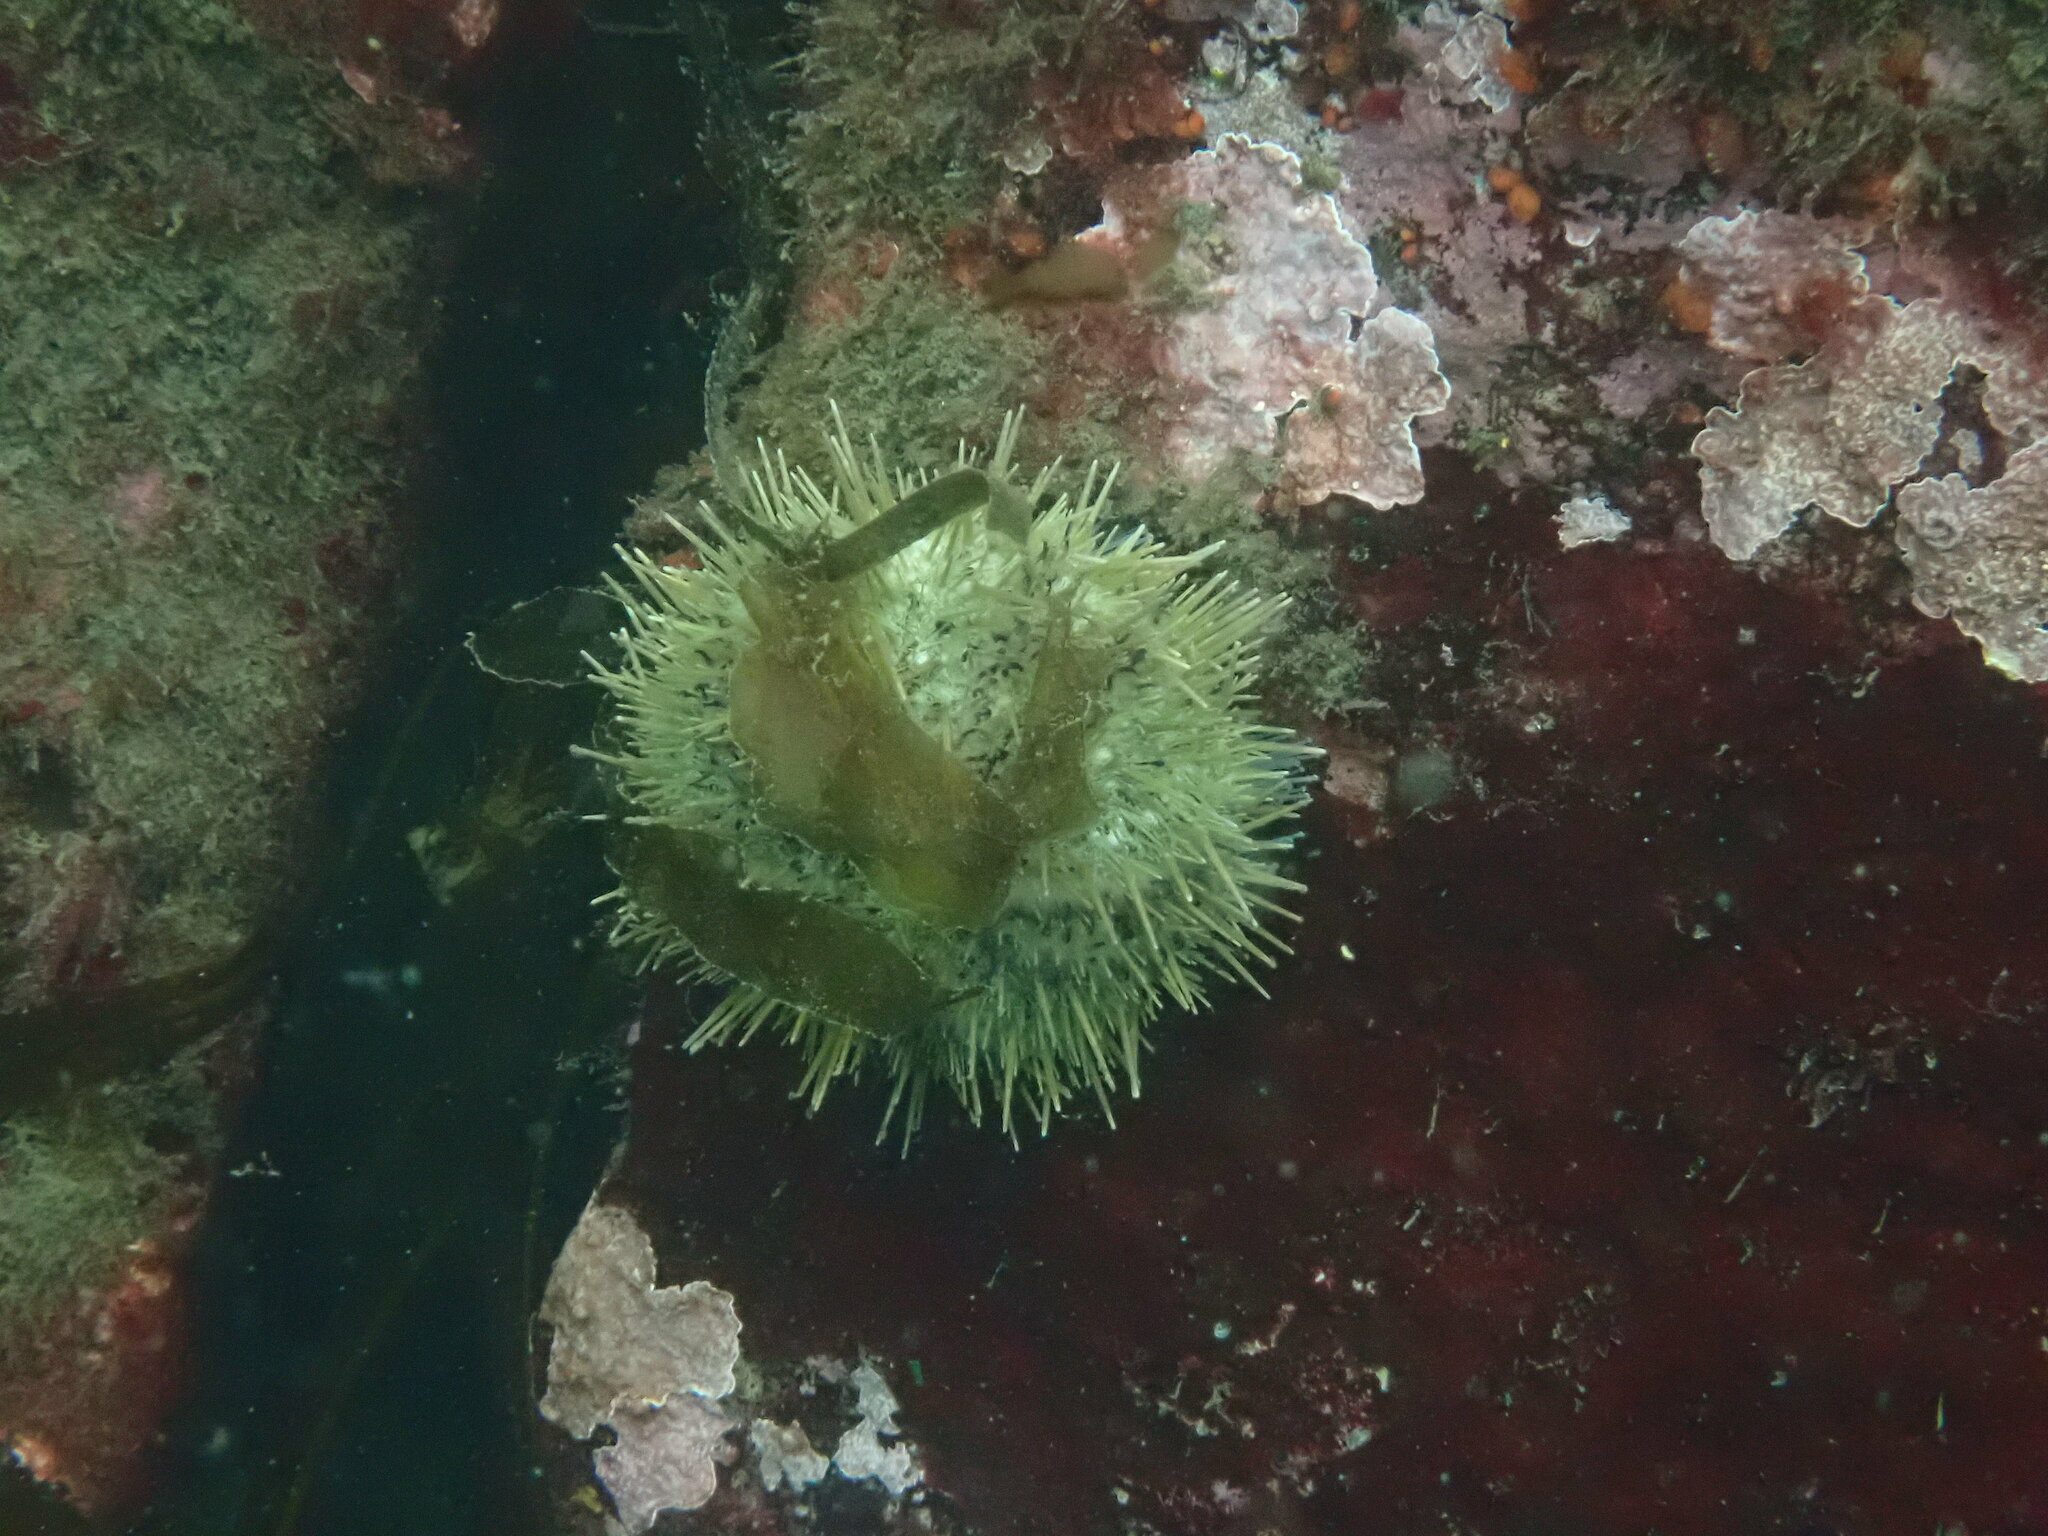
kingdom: Animalia
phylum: Echinodermata
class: Echinoidea
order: Camarodonta
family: Strongylocentrotidae
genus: Strongylocentrotus
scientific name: Strongylocentrotus droebachiensis
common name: Northern sea urchin
